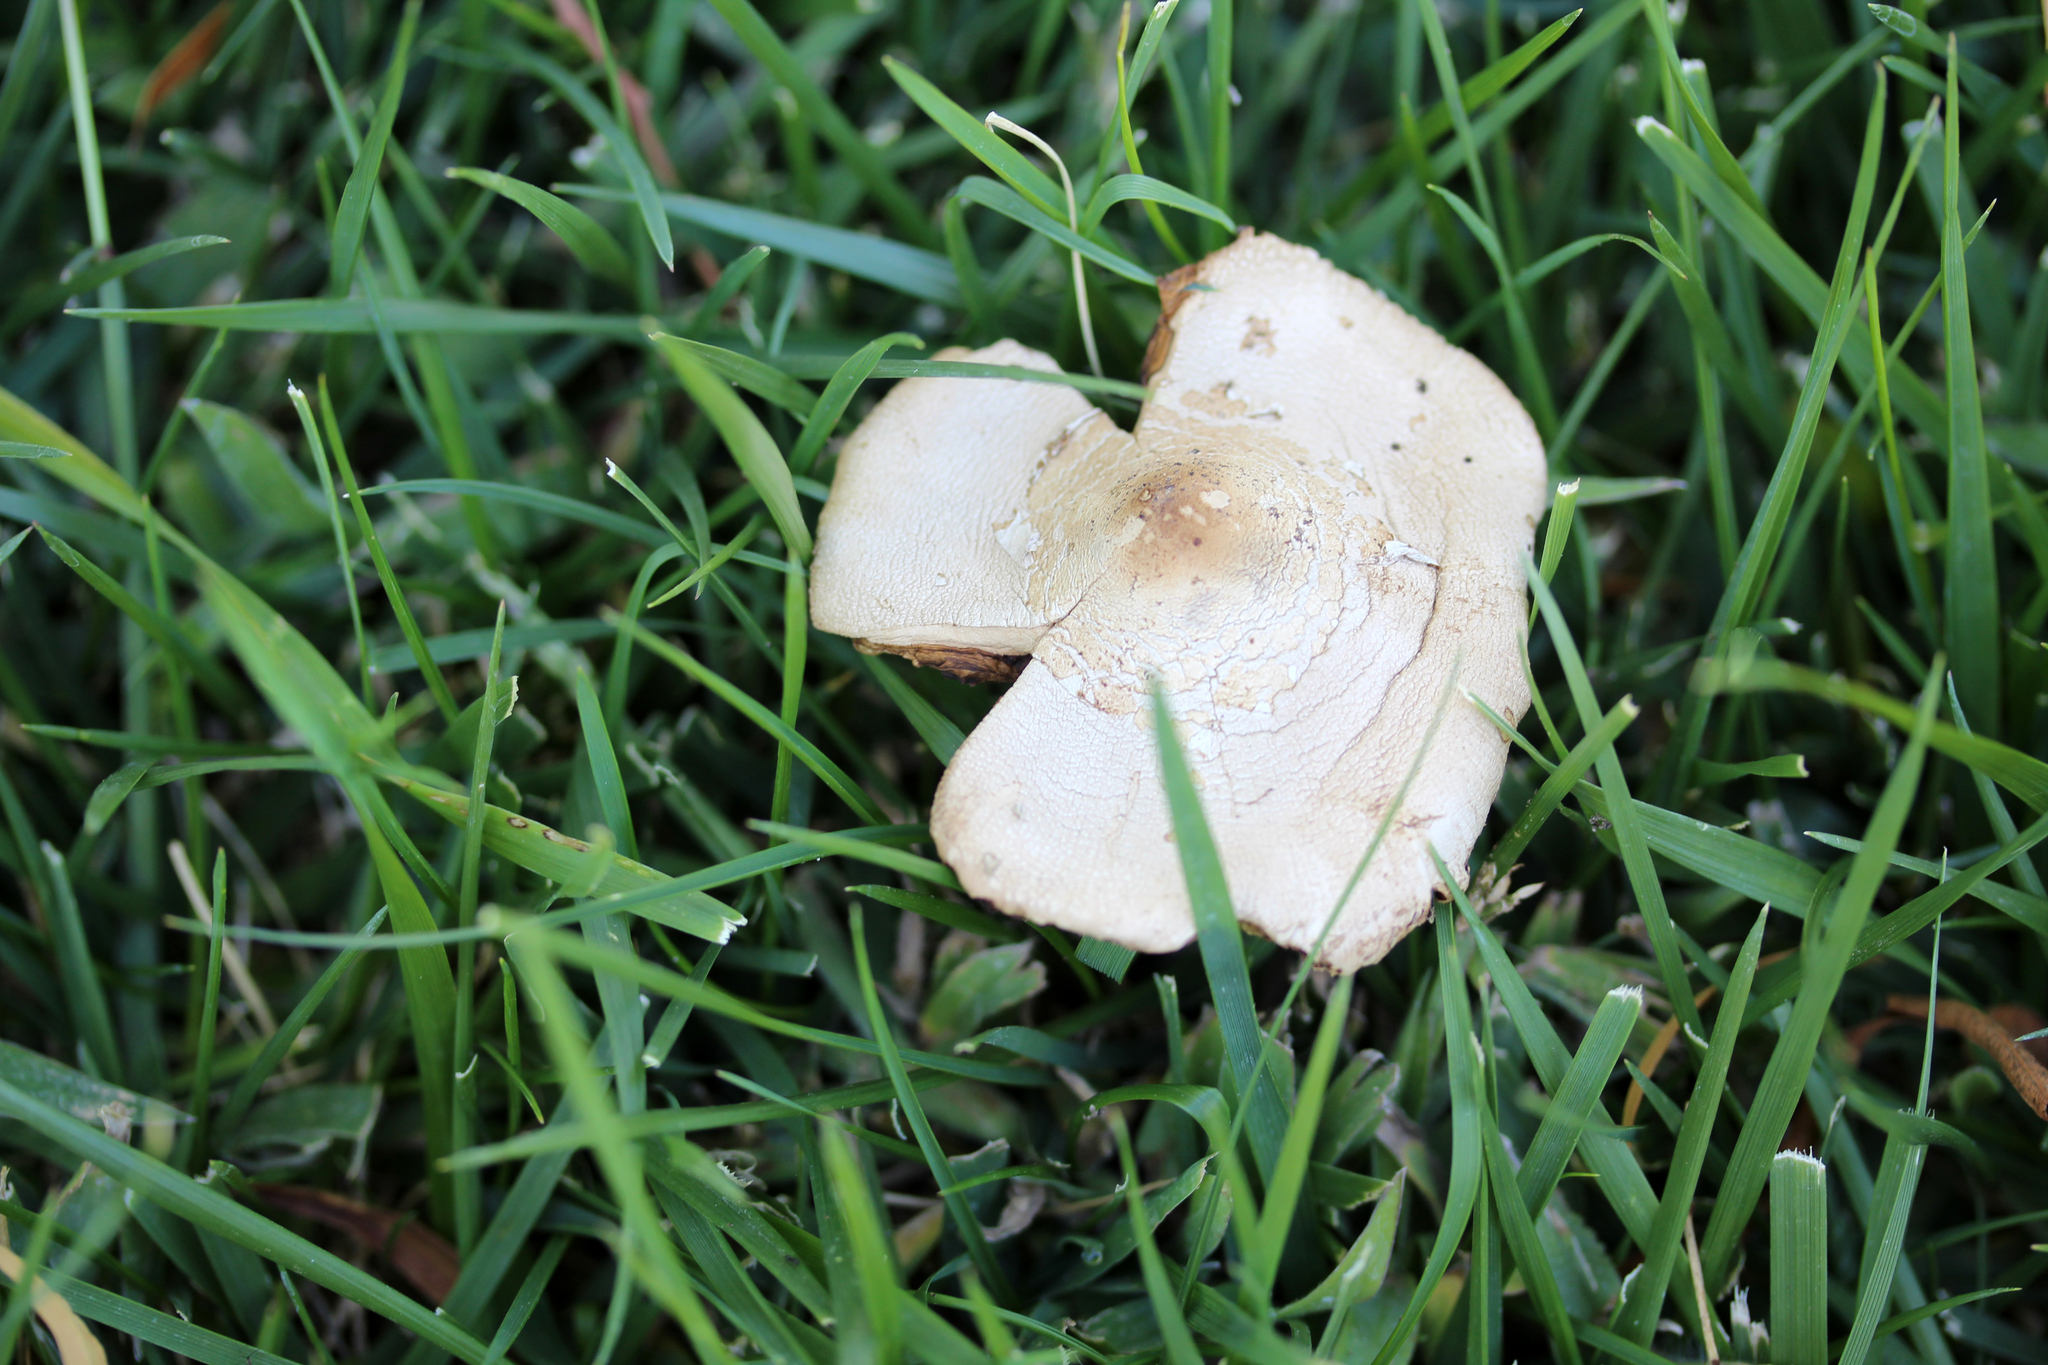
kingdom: Fungi
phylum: Basidiomycota
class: Agaricomycetes
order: Agaricales
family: Agaricaceae
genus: Chlorophyllum
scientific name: Chlorophyllum molybdites
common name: False parasol
